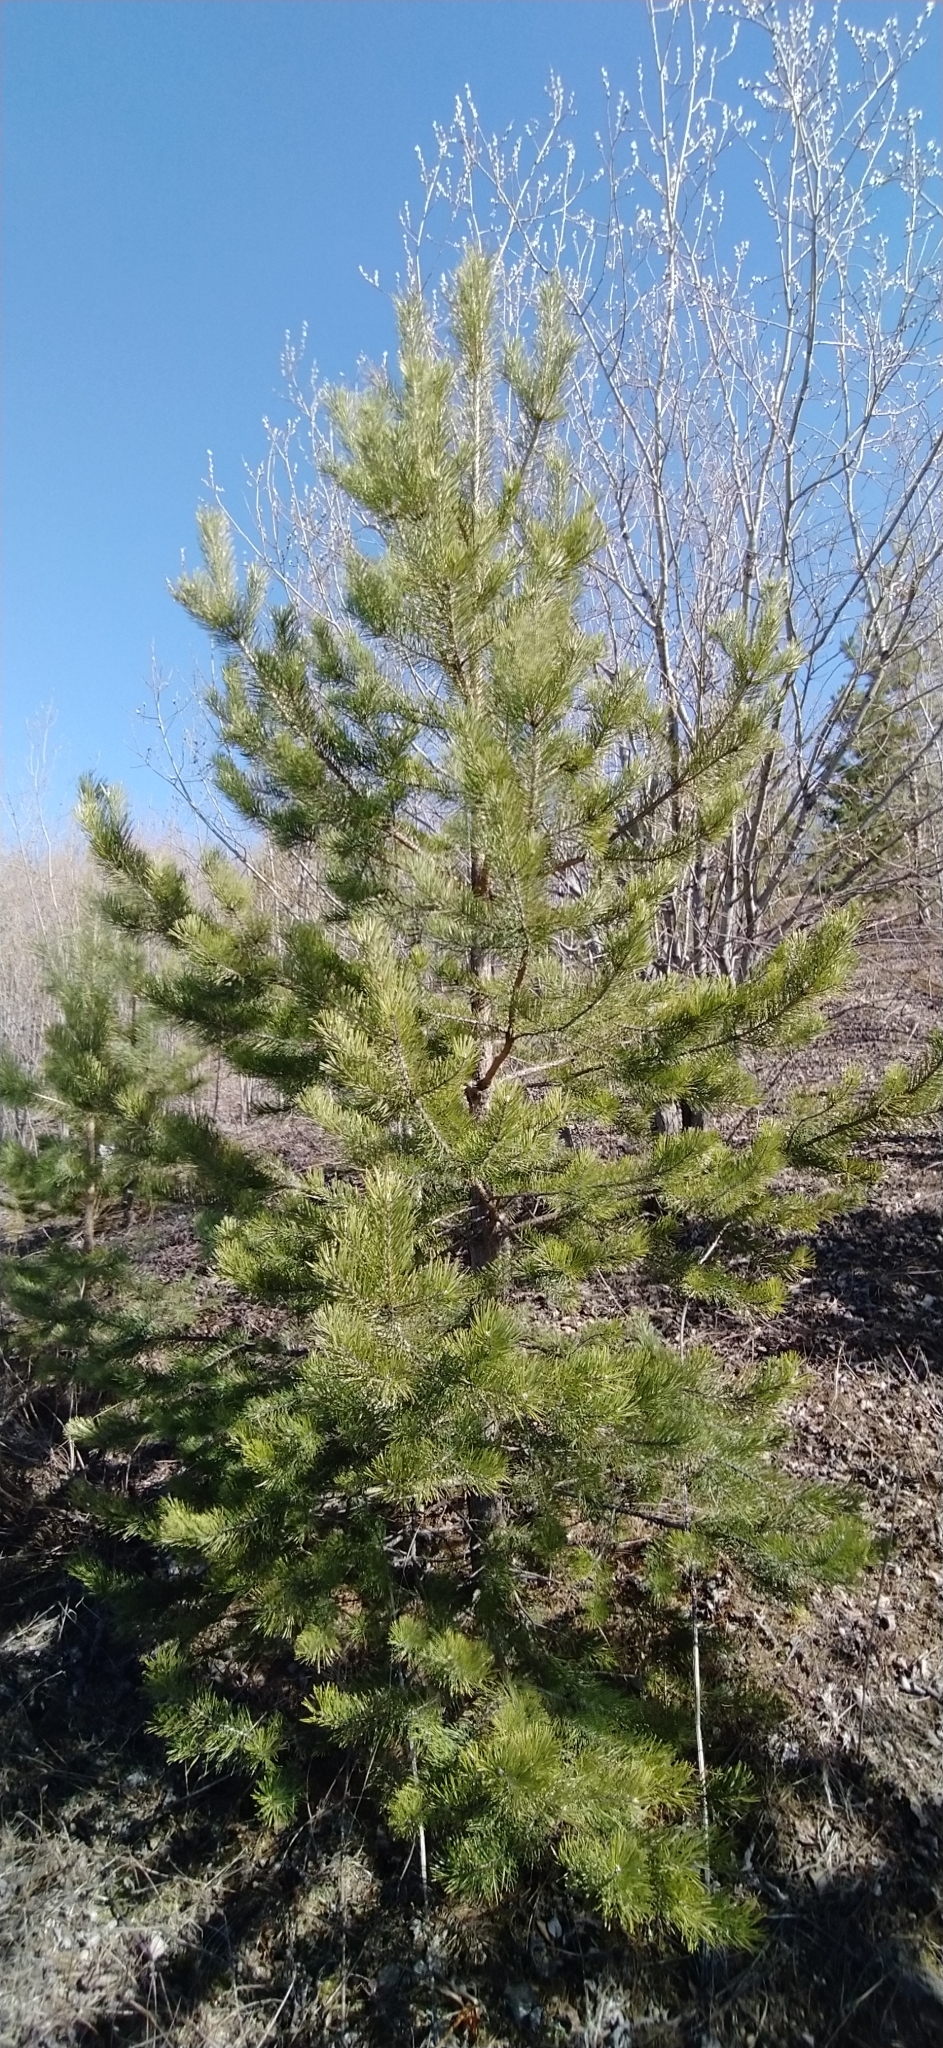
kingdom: Plantae
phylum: Tracheophyta
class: Pinopsida
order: Pinales
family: Pinaceae
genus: Pinus
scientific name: Pinus sylvestris
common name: Scots pine
